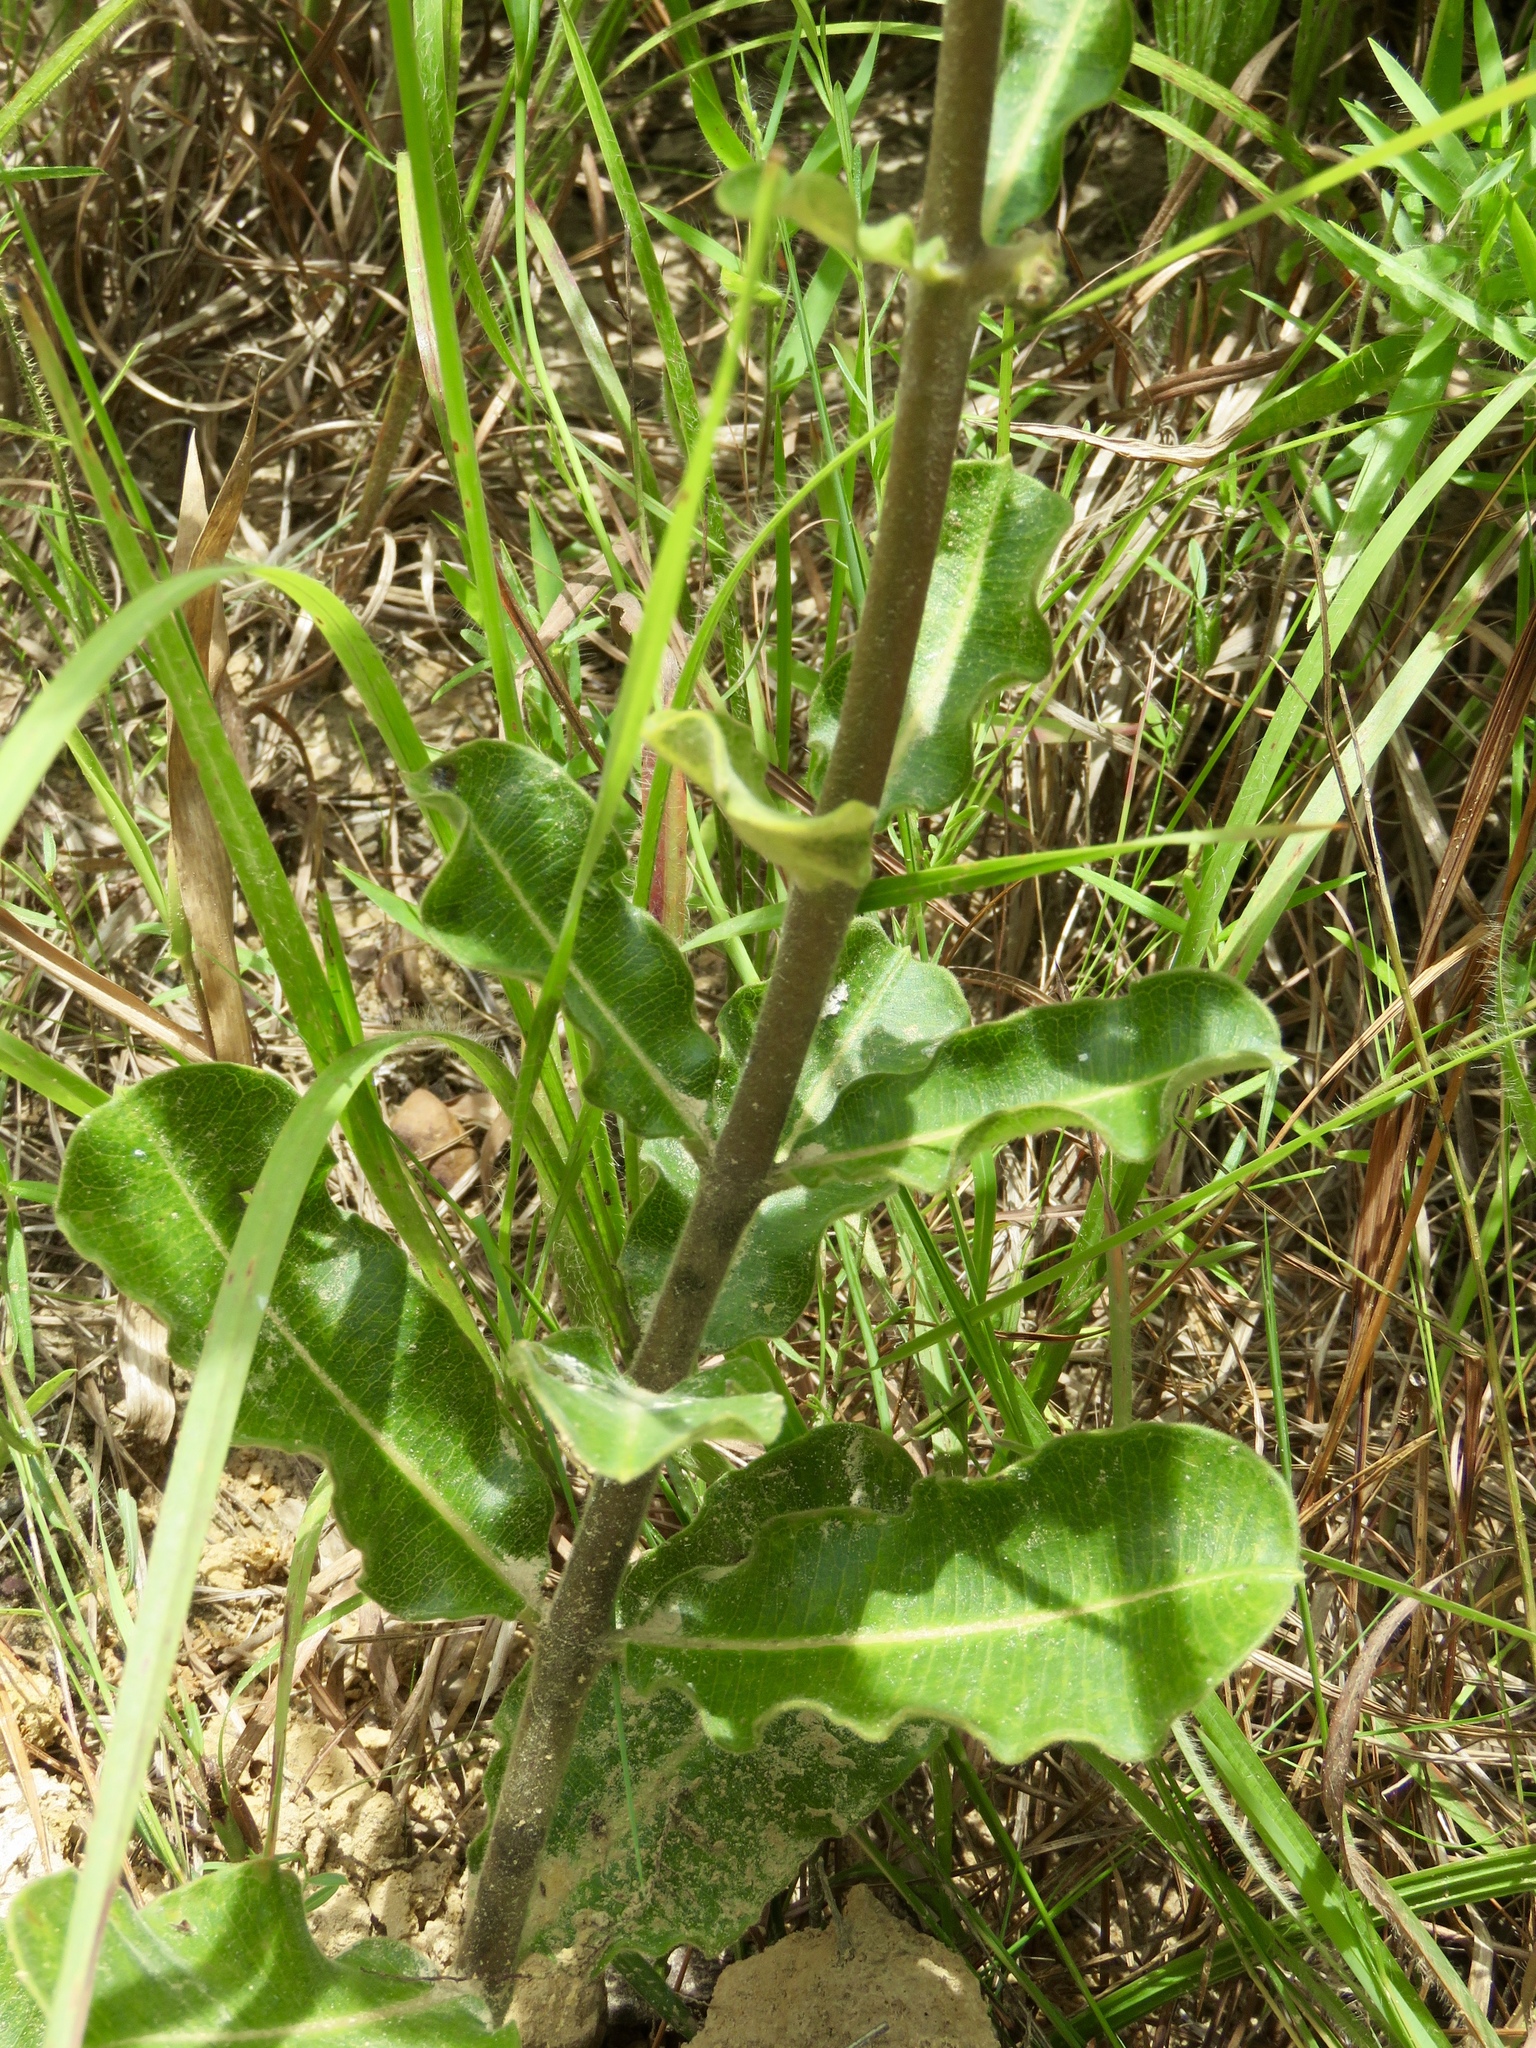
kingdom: Plantae
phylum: Tracheophyta
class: Magnoliopsida
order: Gentianales
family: Apocynaceae
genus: Asclepias
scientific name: Asclepias obovata
